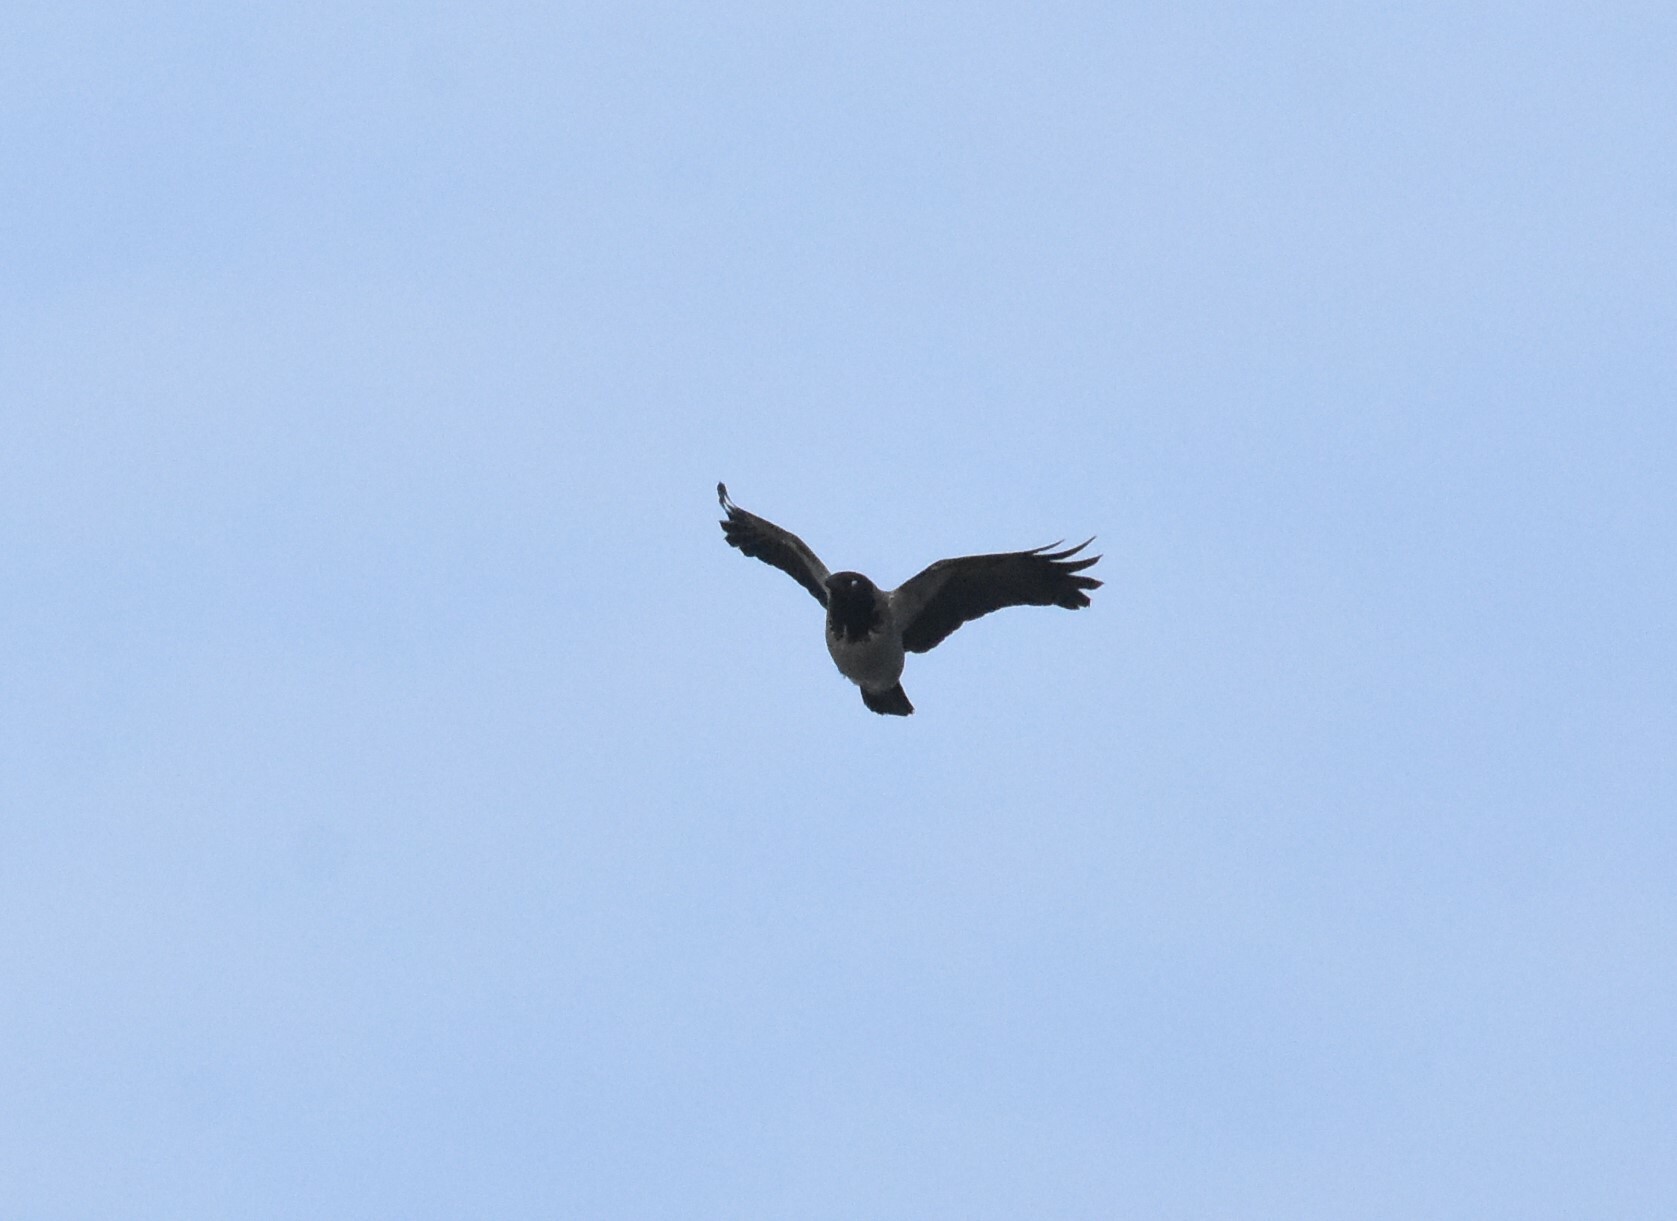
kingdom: Animalia
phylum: Chordata
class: Aves
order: Passeriformes
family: Corvidae
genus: Corvus
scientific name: Corvus cornix
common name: Hooded crow
